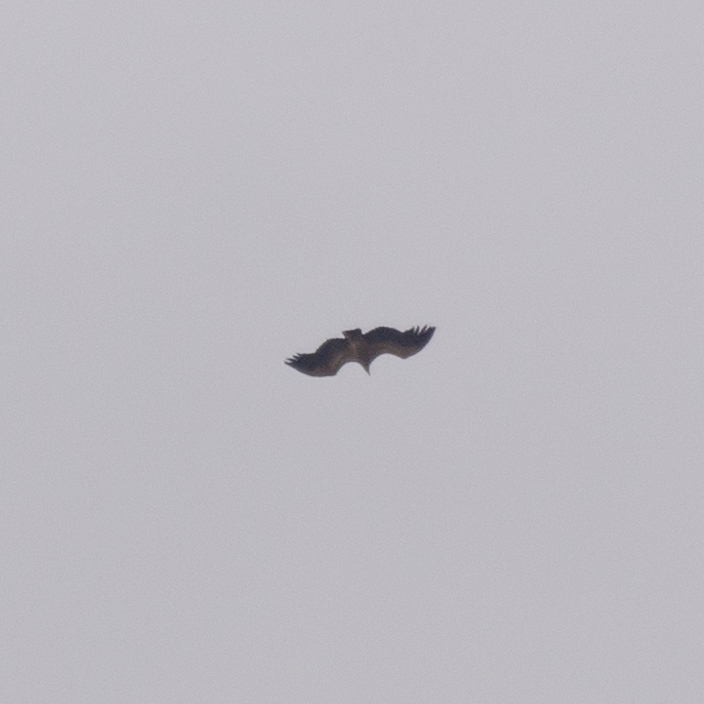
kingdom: Animalia
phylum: Chordata
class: Aves
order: Accipitriformes
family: Accipitridae
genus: Gyps
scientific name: Gyps fulvus
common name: Griffon vulture
